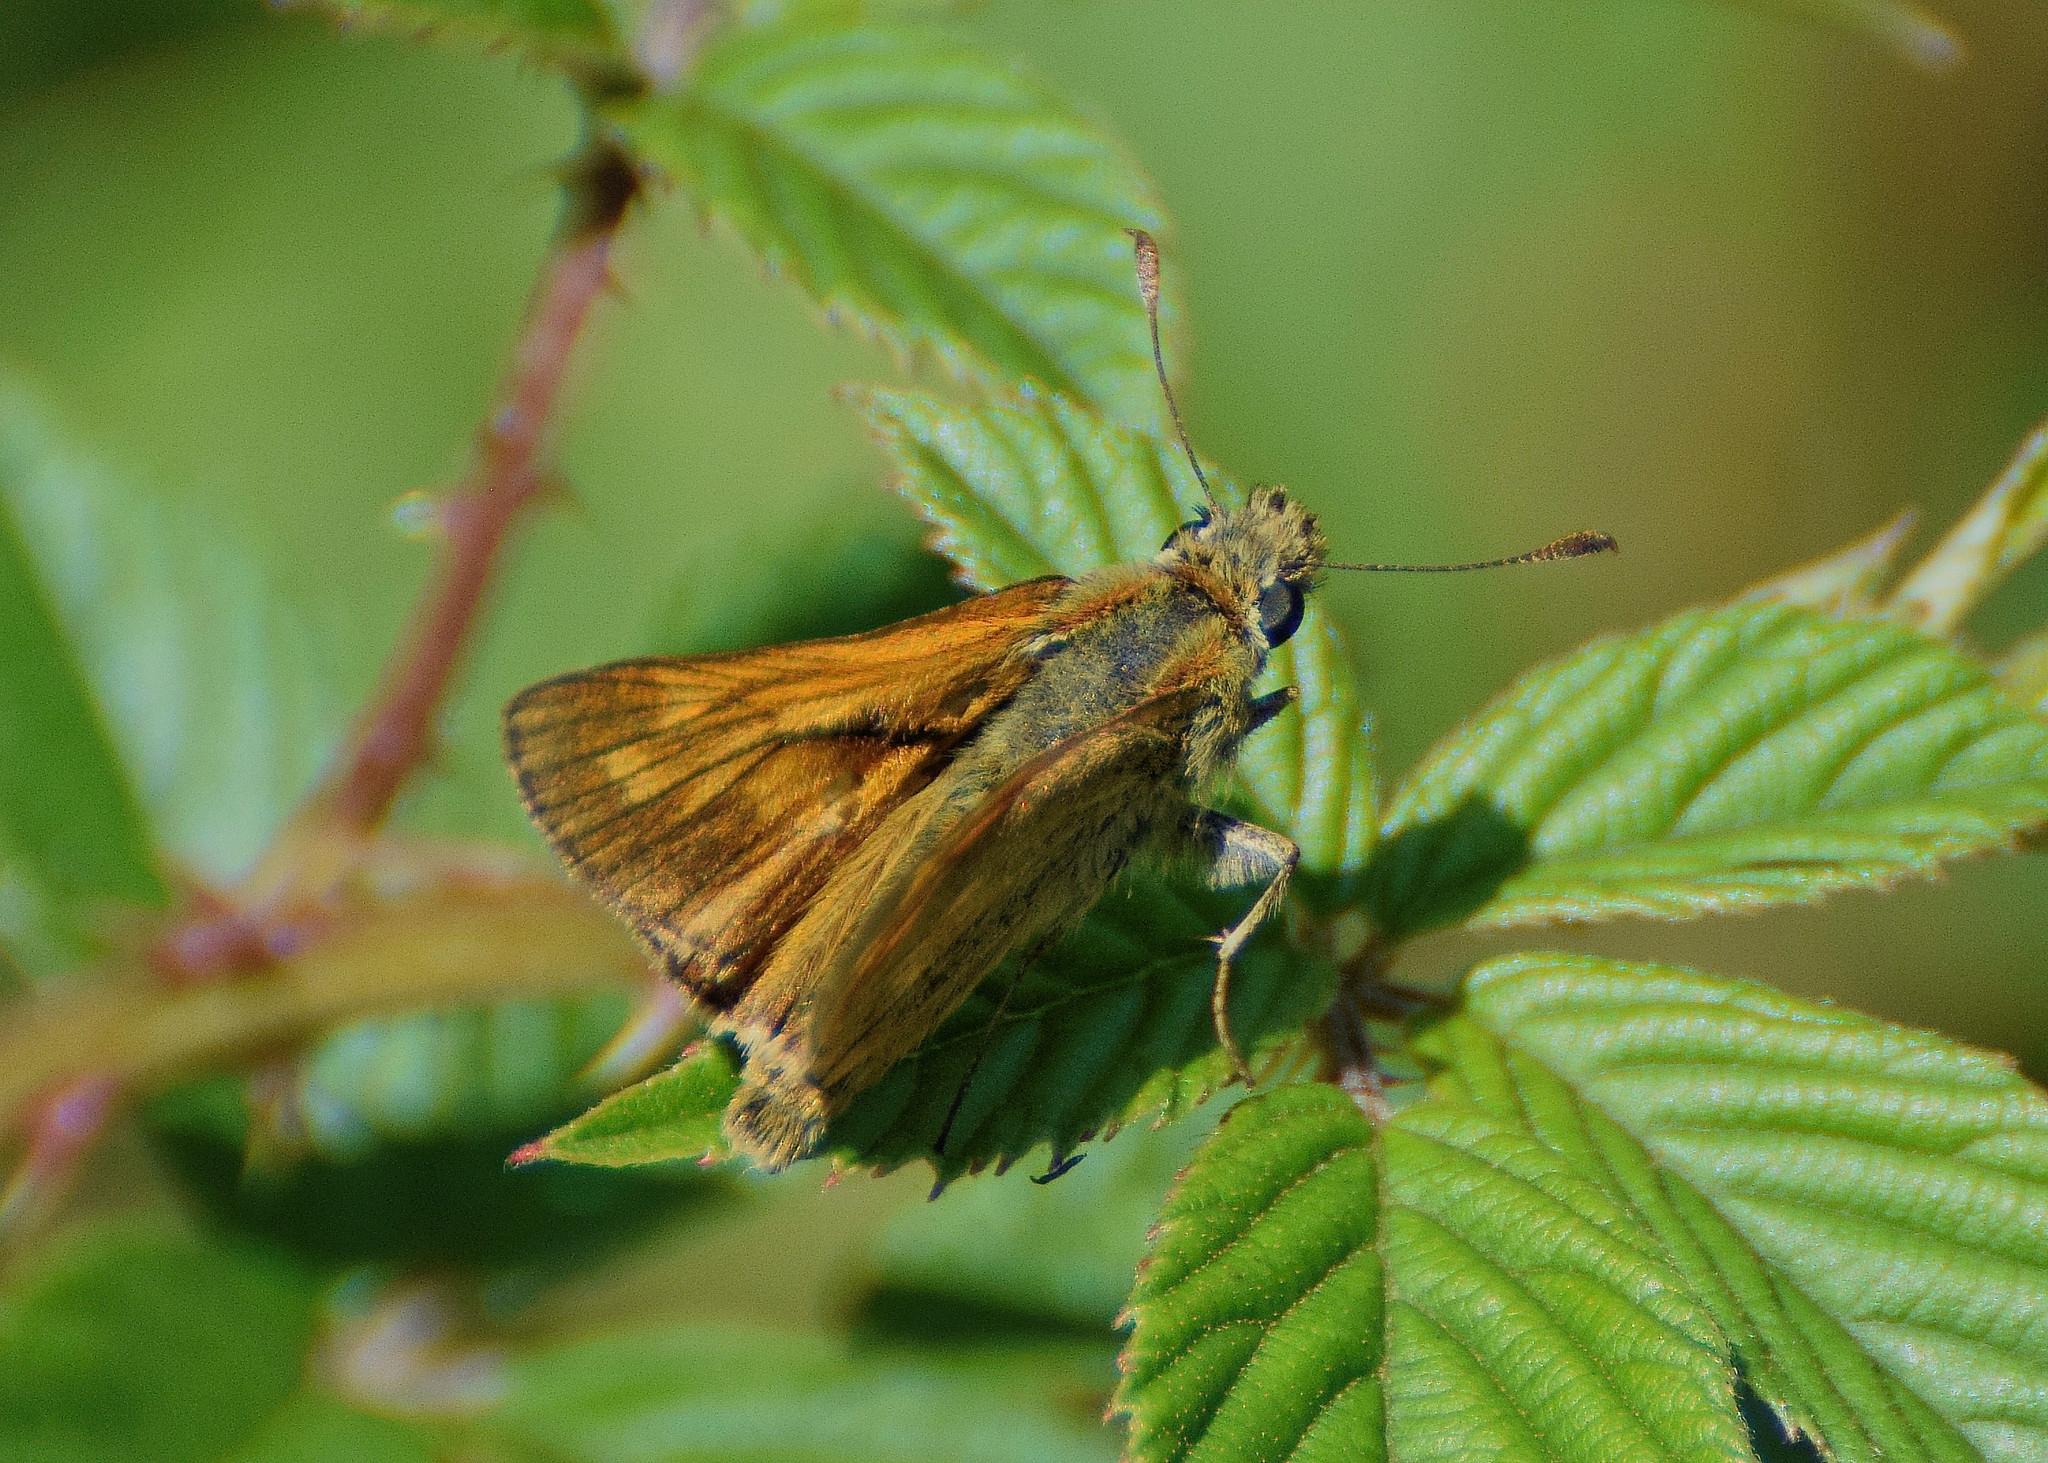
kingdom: Animalia
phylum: Arthropoda
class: Insecta
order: Lepidoptera
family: Hesperiidae
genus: Ochlodes
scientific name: Ochlodes venata
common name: Large skipper
